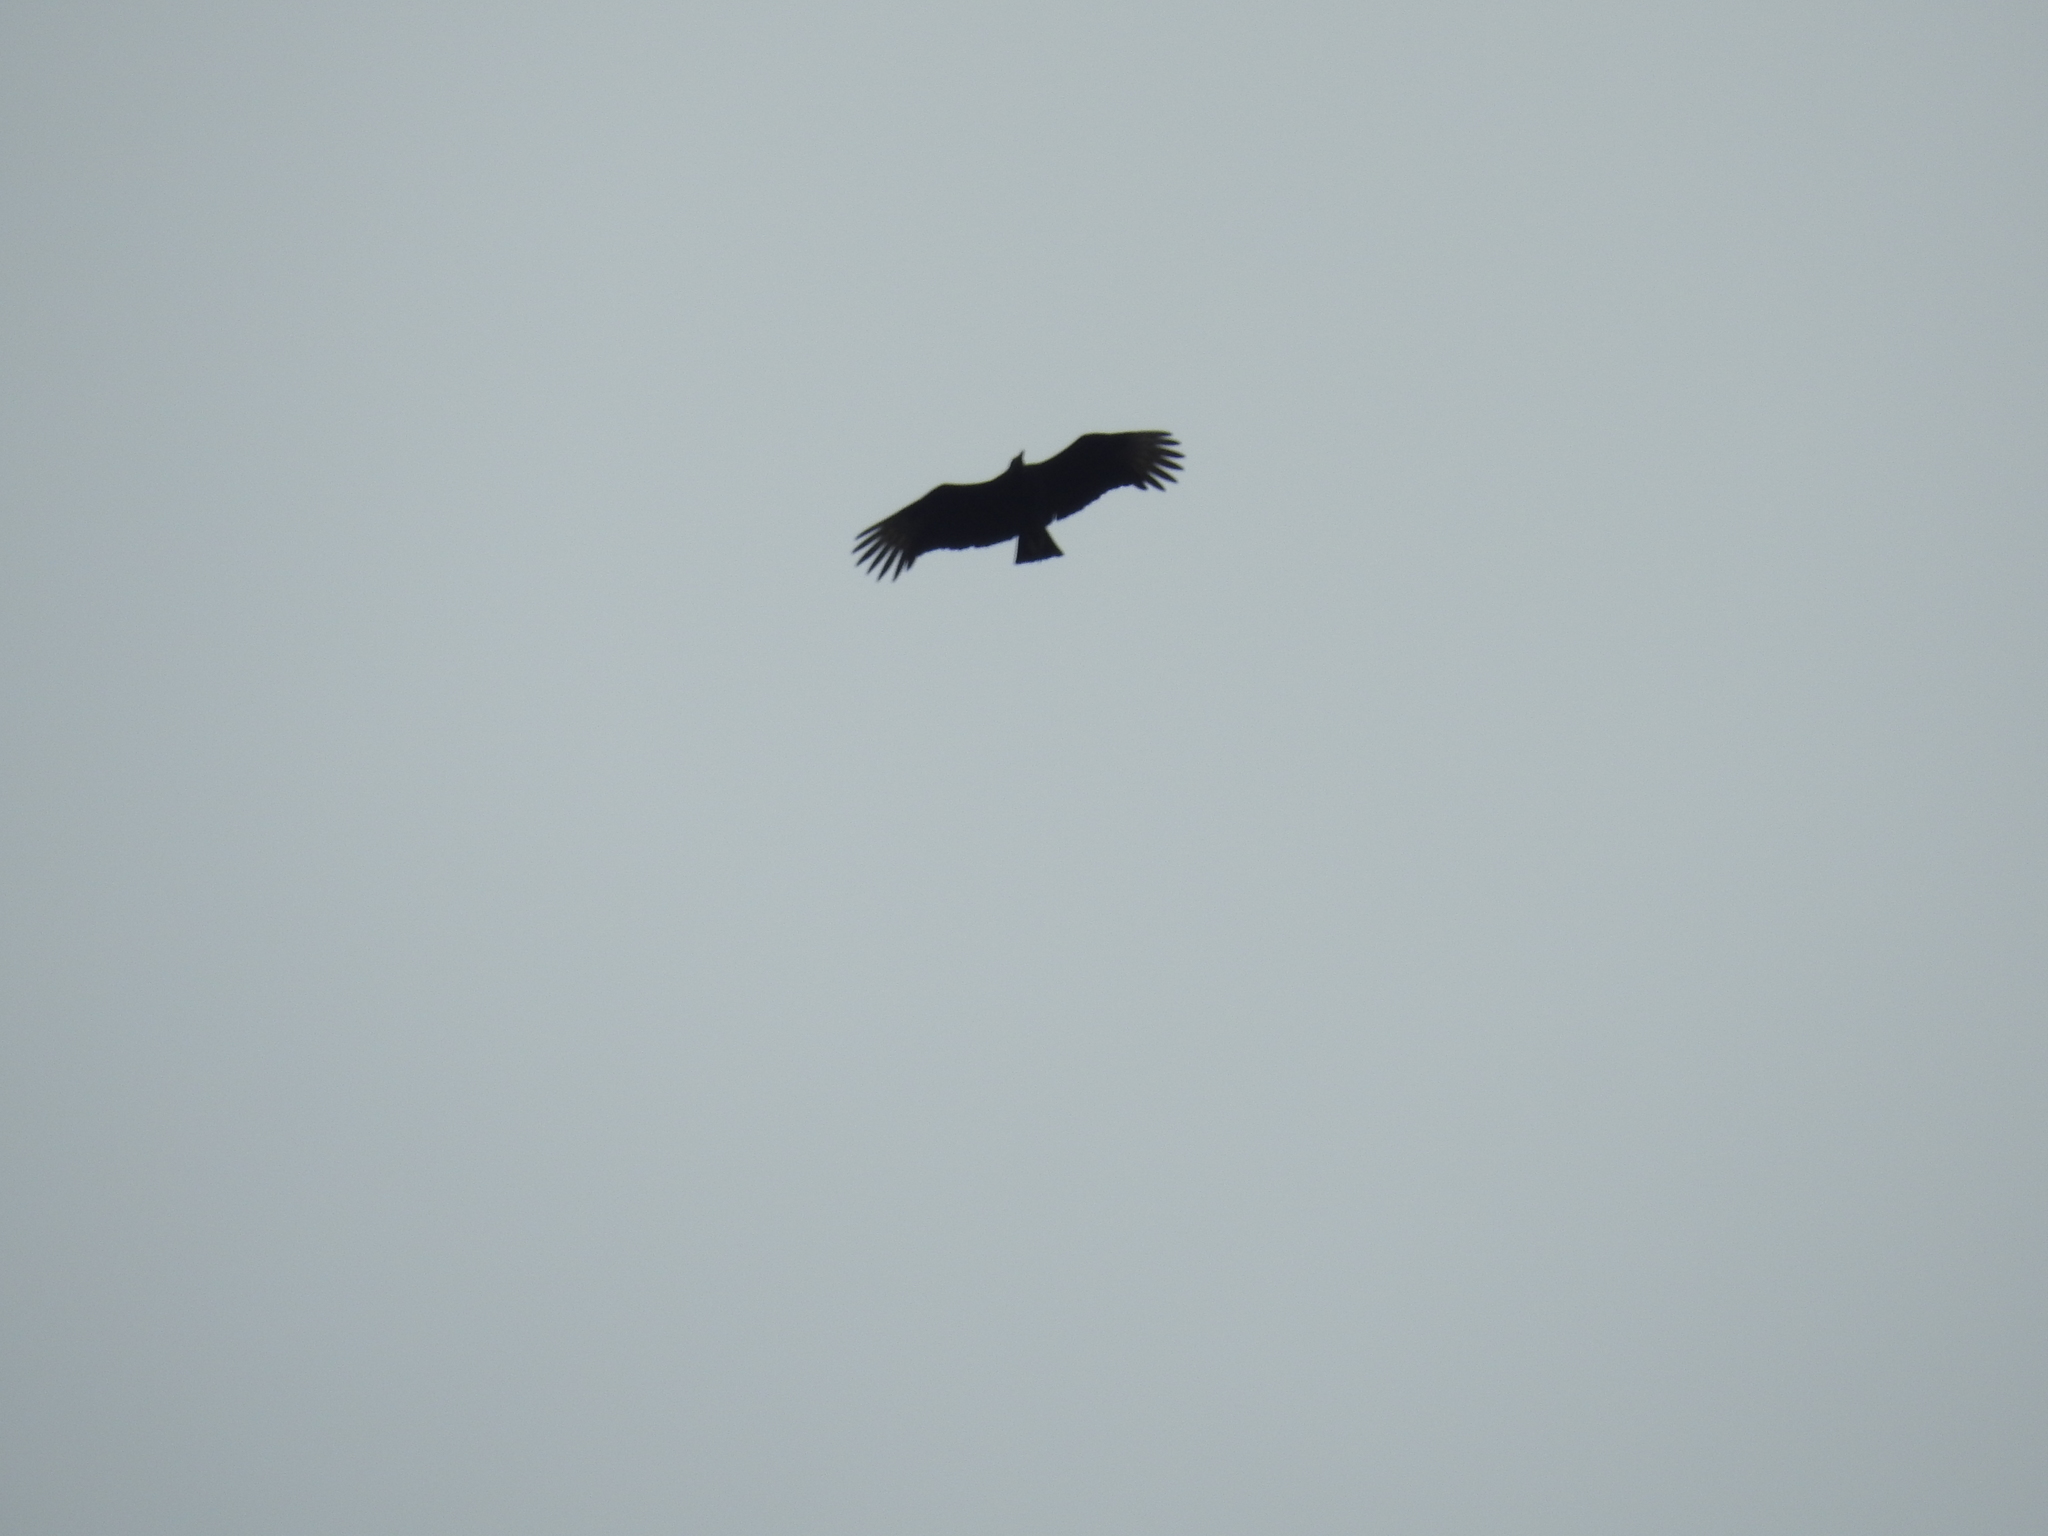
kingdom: Animalia
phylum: Chordata
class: Aves
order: Accipitriformes
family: Cathartidae
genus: Coragyps
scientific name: Coragyps atratus
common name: Black vulture
